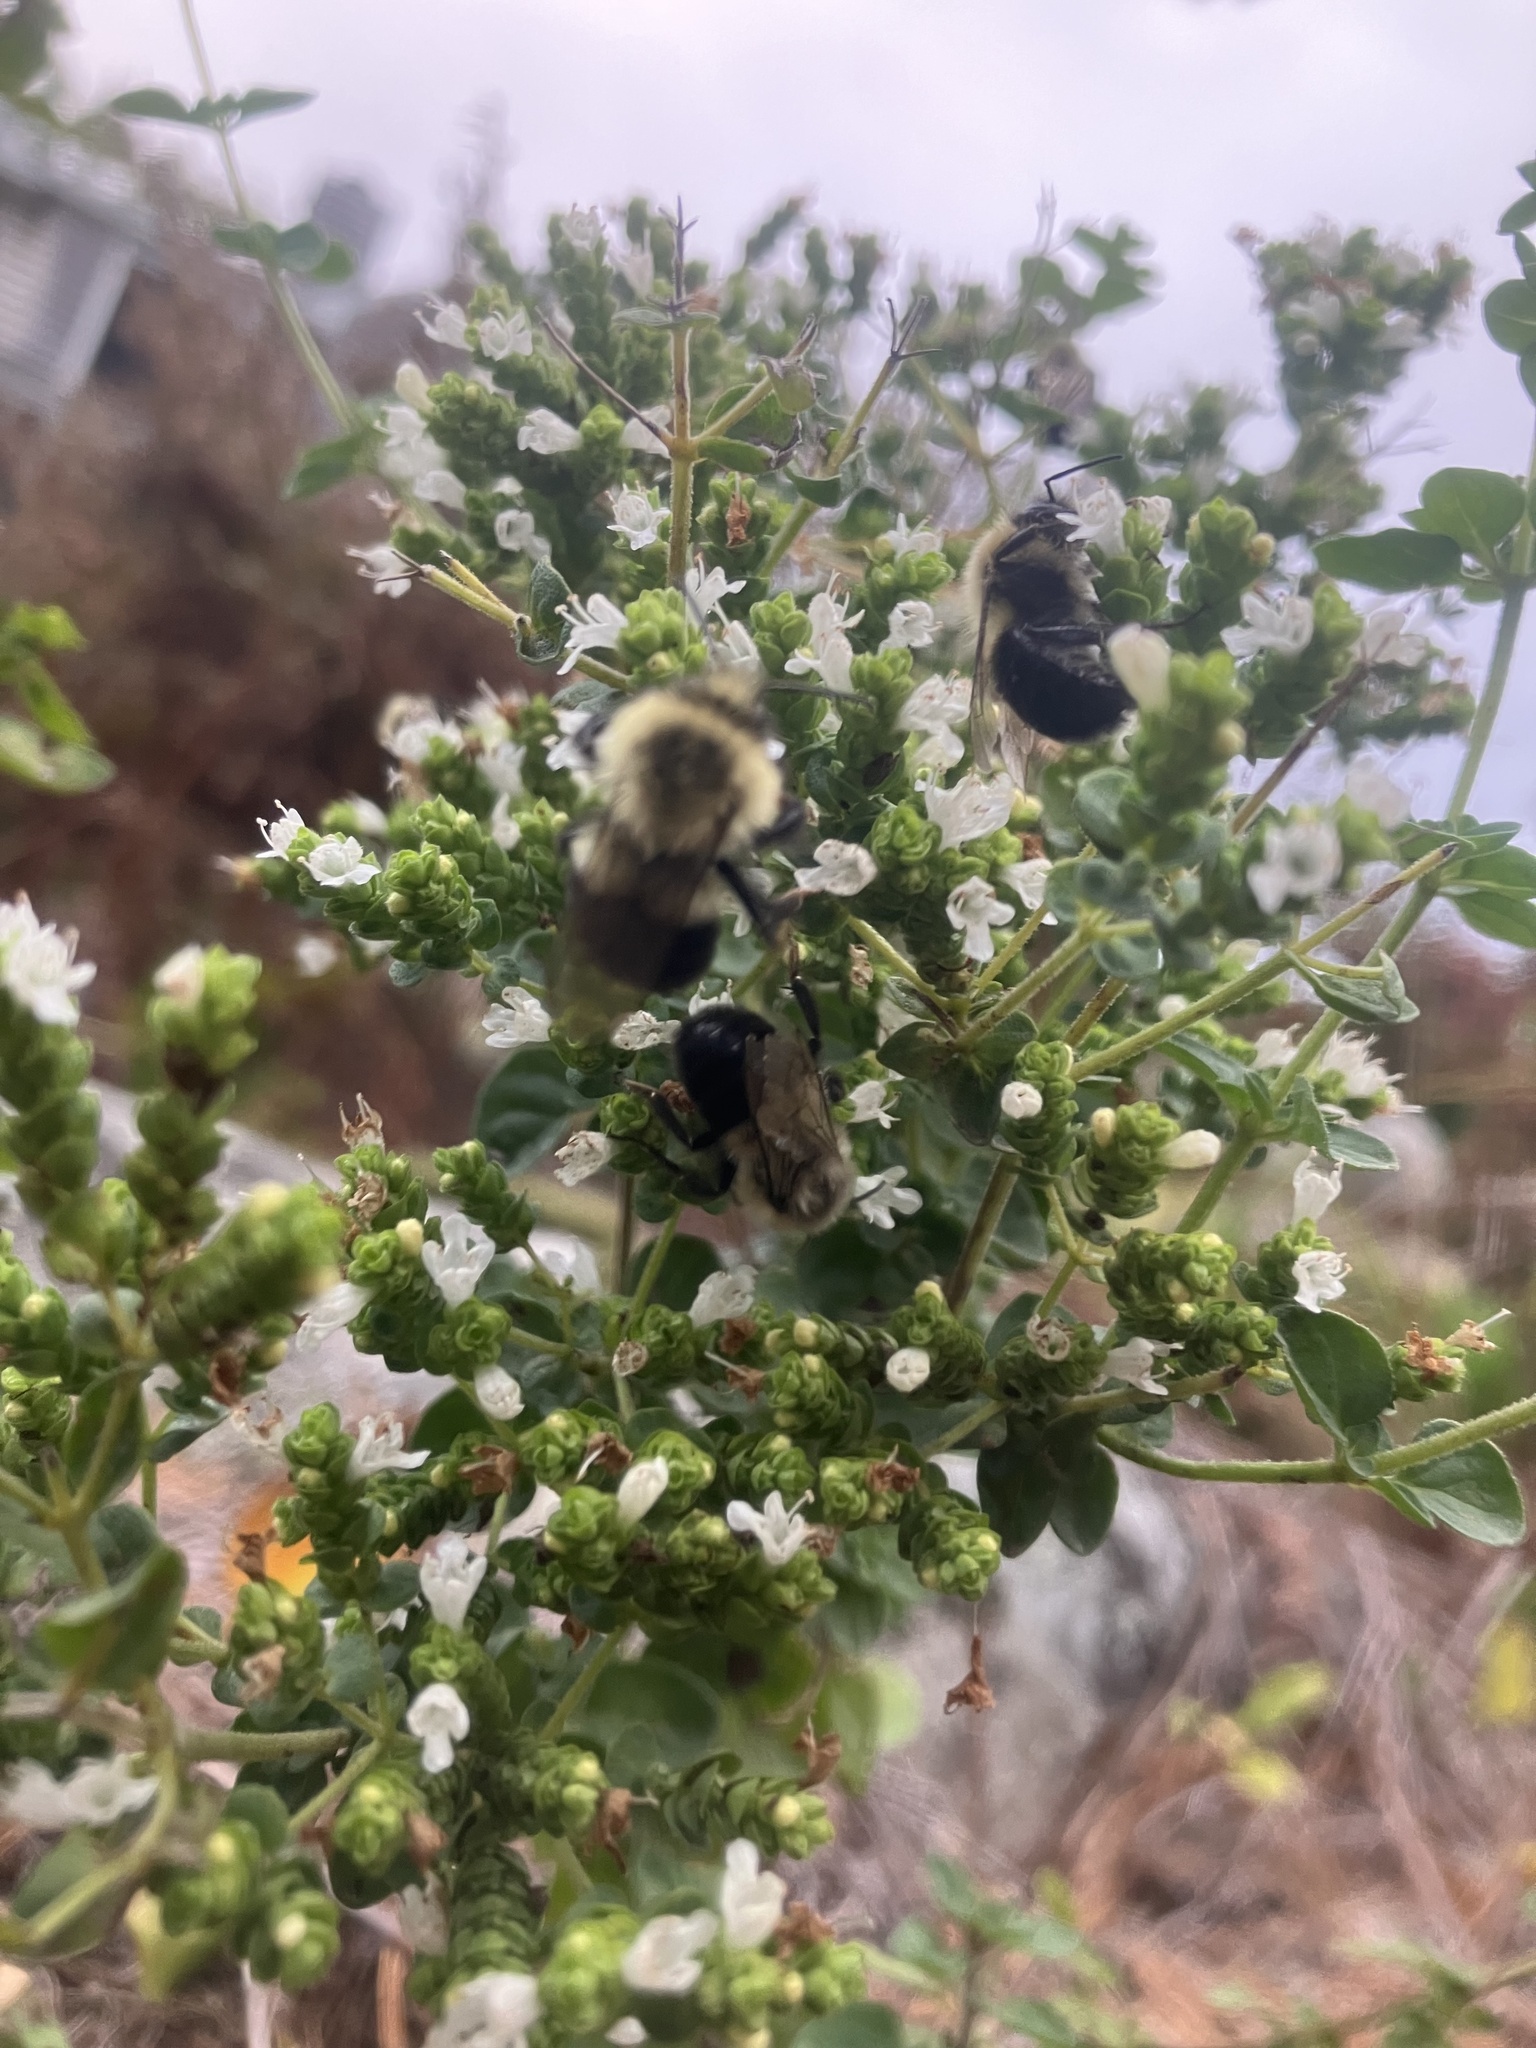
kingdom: Animalia
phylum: Arthropoda
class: Insecta
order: Hymenoptera
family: Apidae
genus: Bombus
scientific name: Bombus impatiens
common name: Common eastern bumble bee
